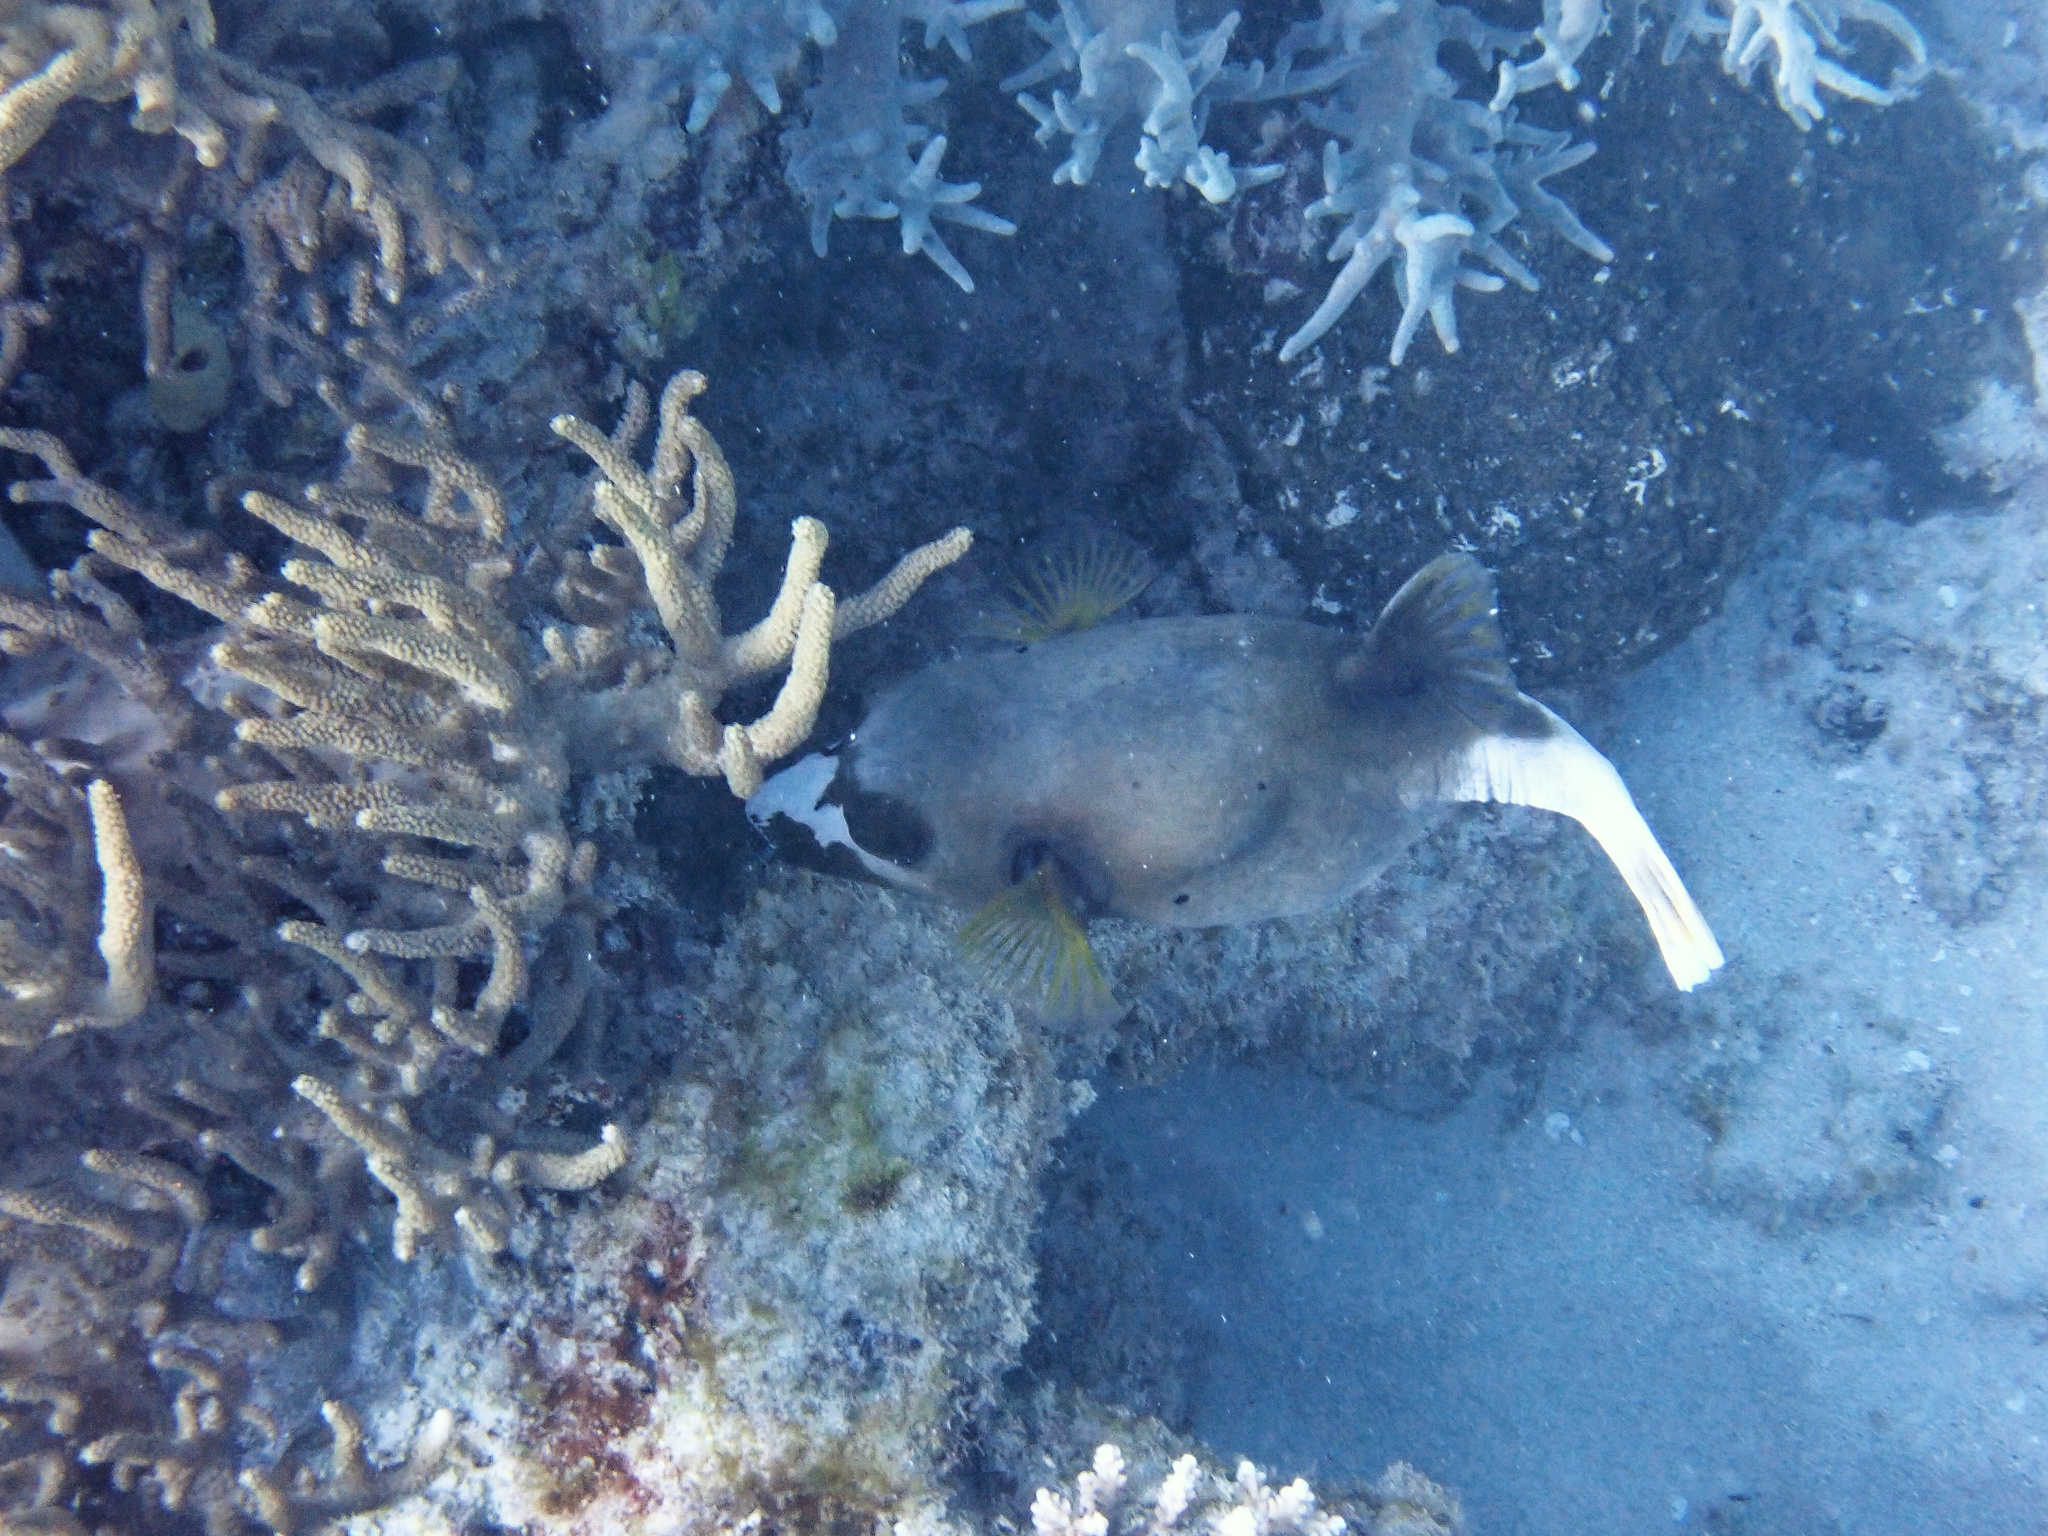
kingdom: Animalia
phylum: Chordata
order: Tetraodontiformes
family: Tetraodontidae
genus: Arothron
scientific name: Arothron nigropunctatus
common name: Black spotted blow fish
